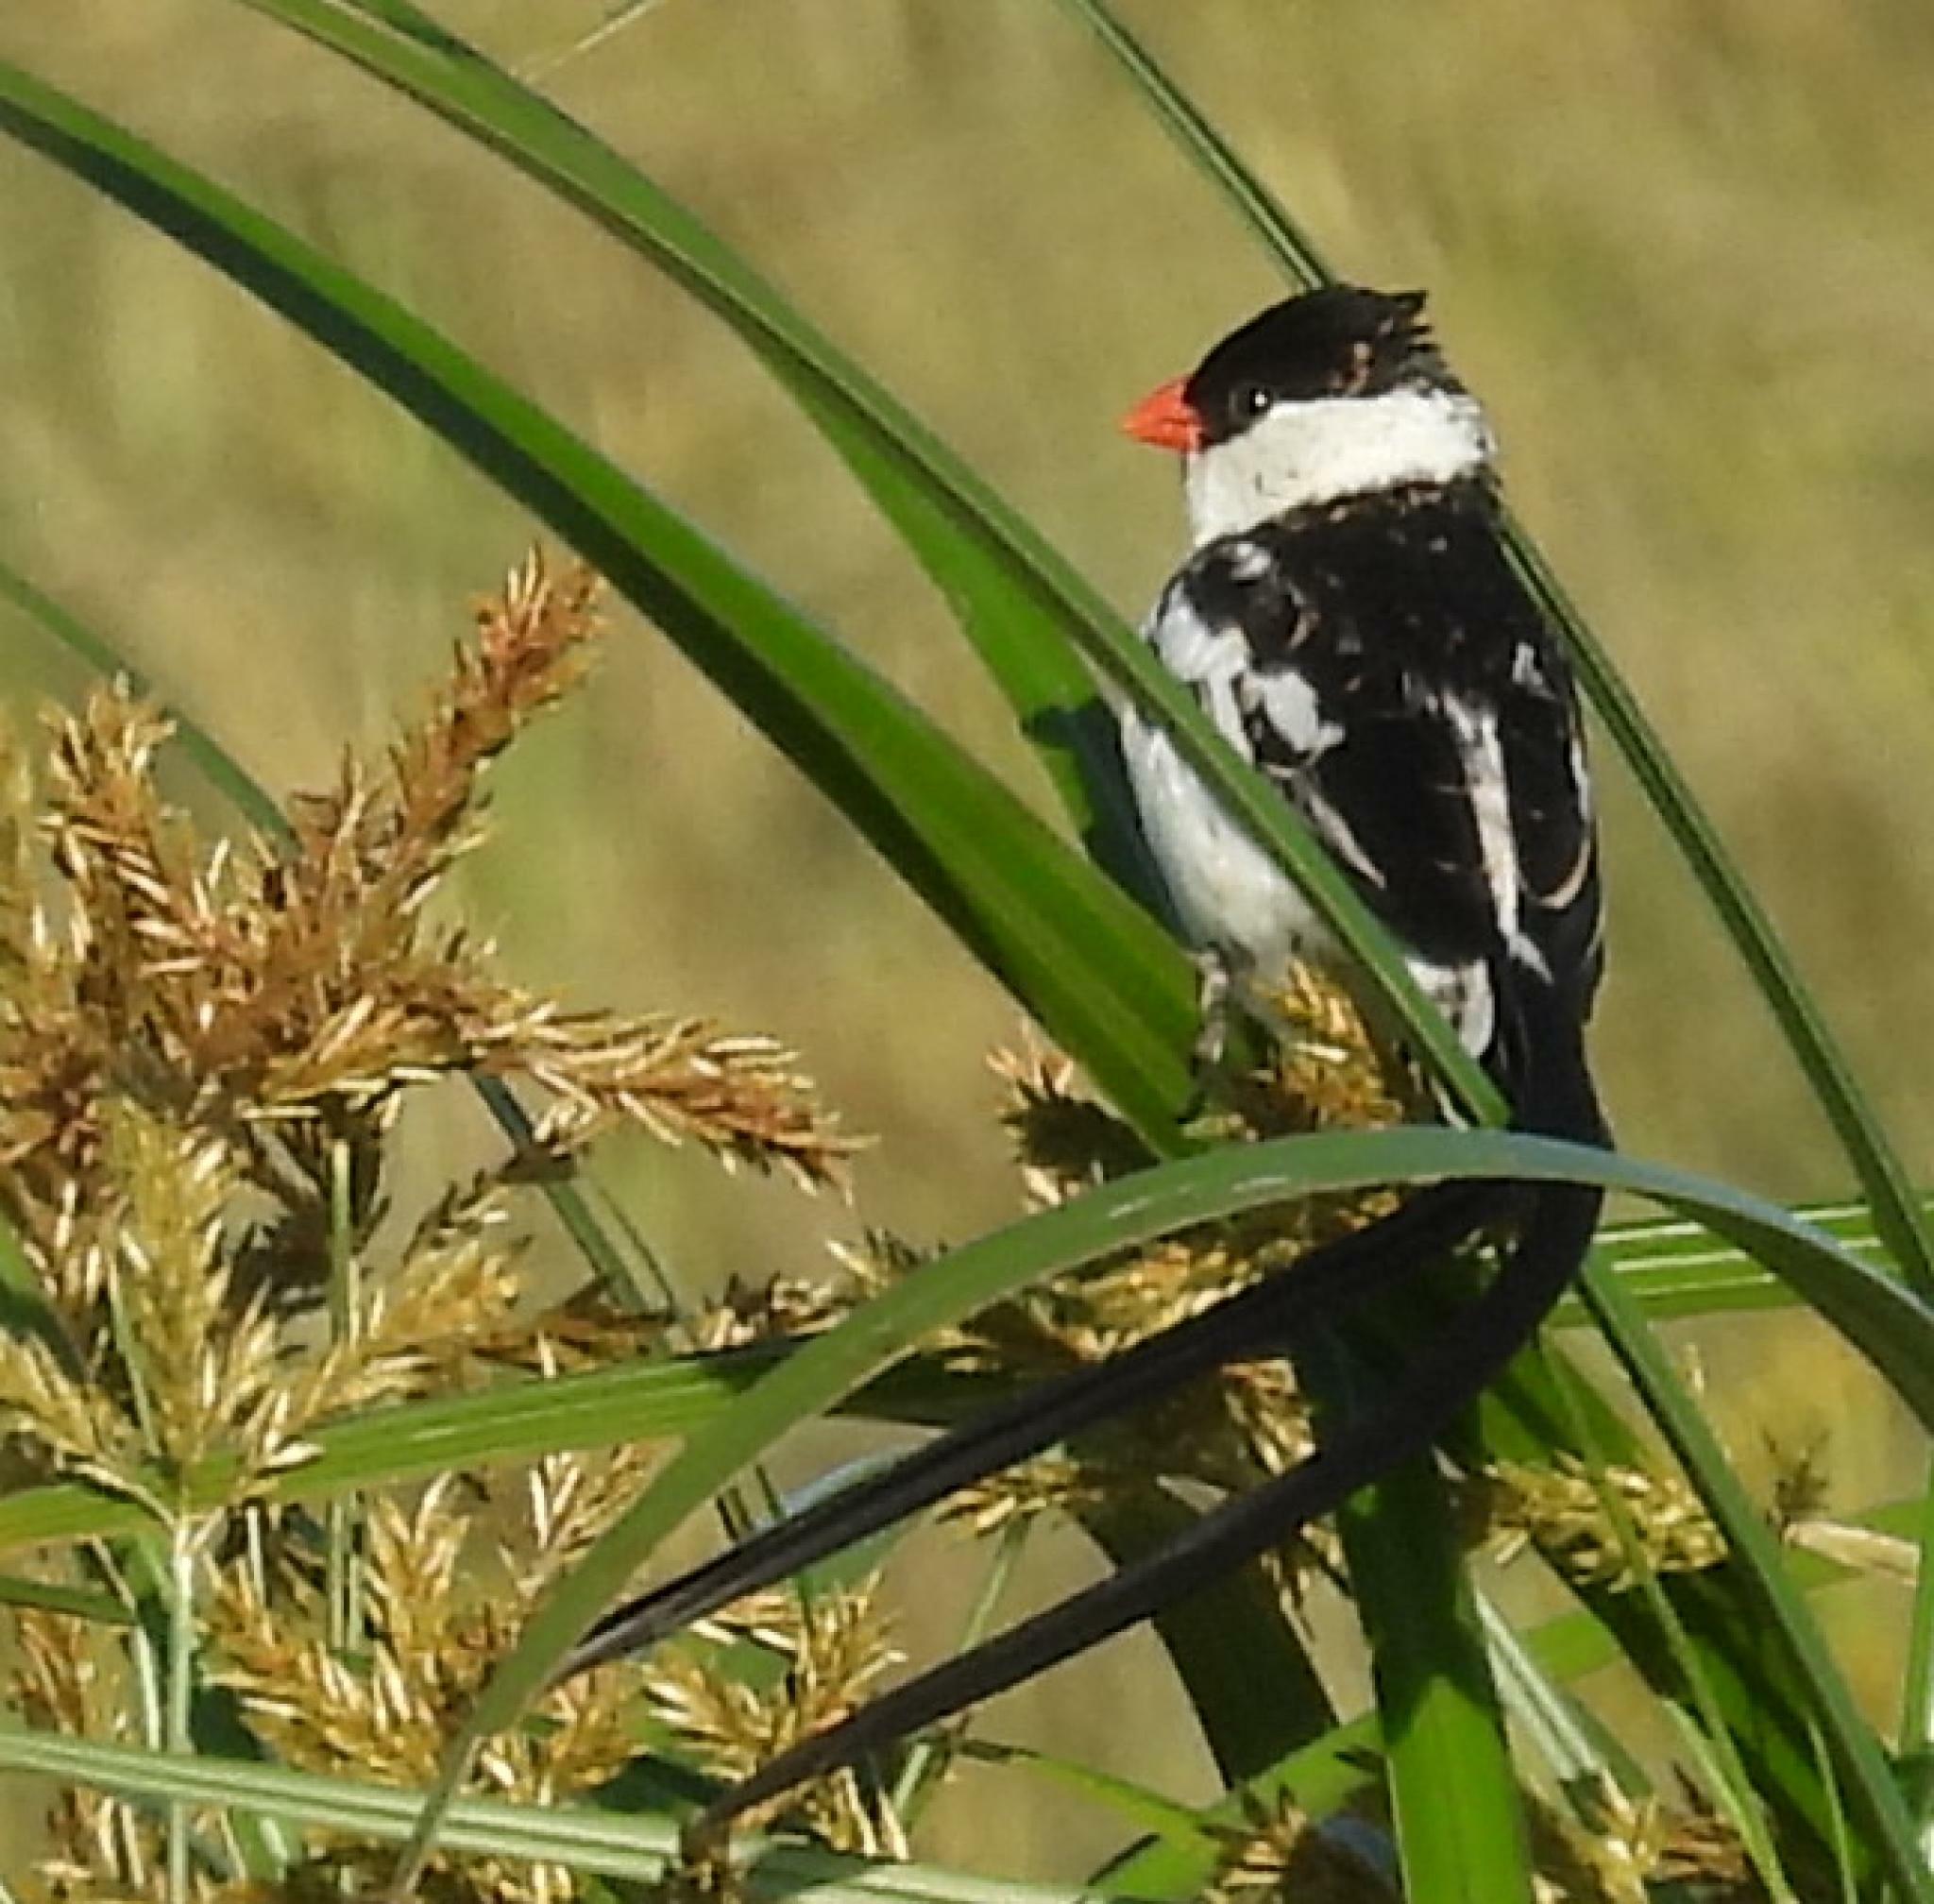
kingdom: Animalia
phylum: Chordata
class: Aves
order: Passeriformes
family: Viduidae
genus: Vidua
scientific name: Vidua macroura
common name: Pin-tailed whydah
